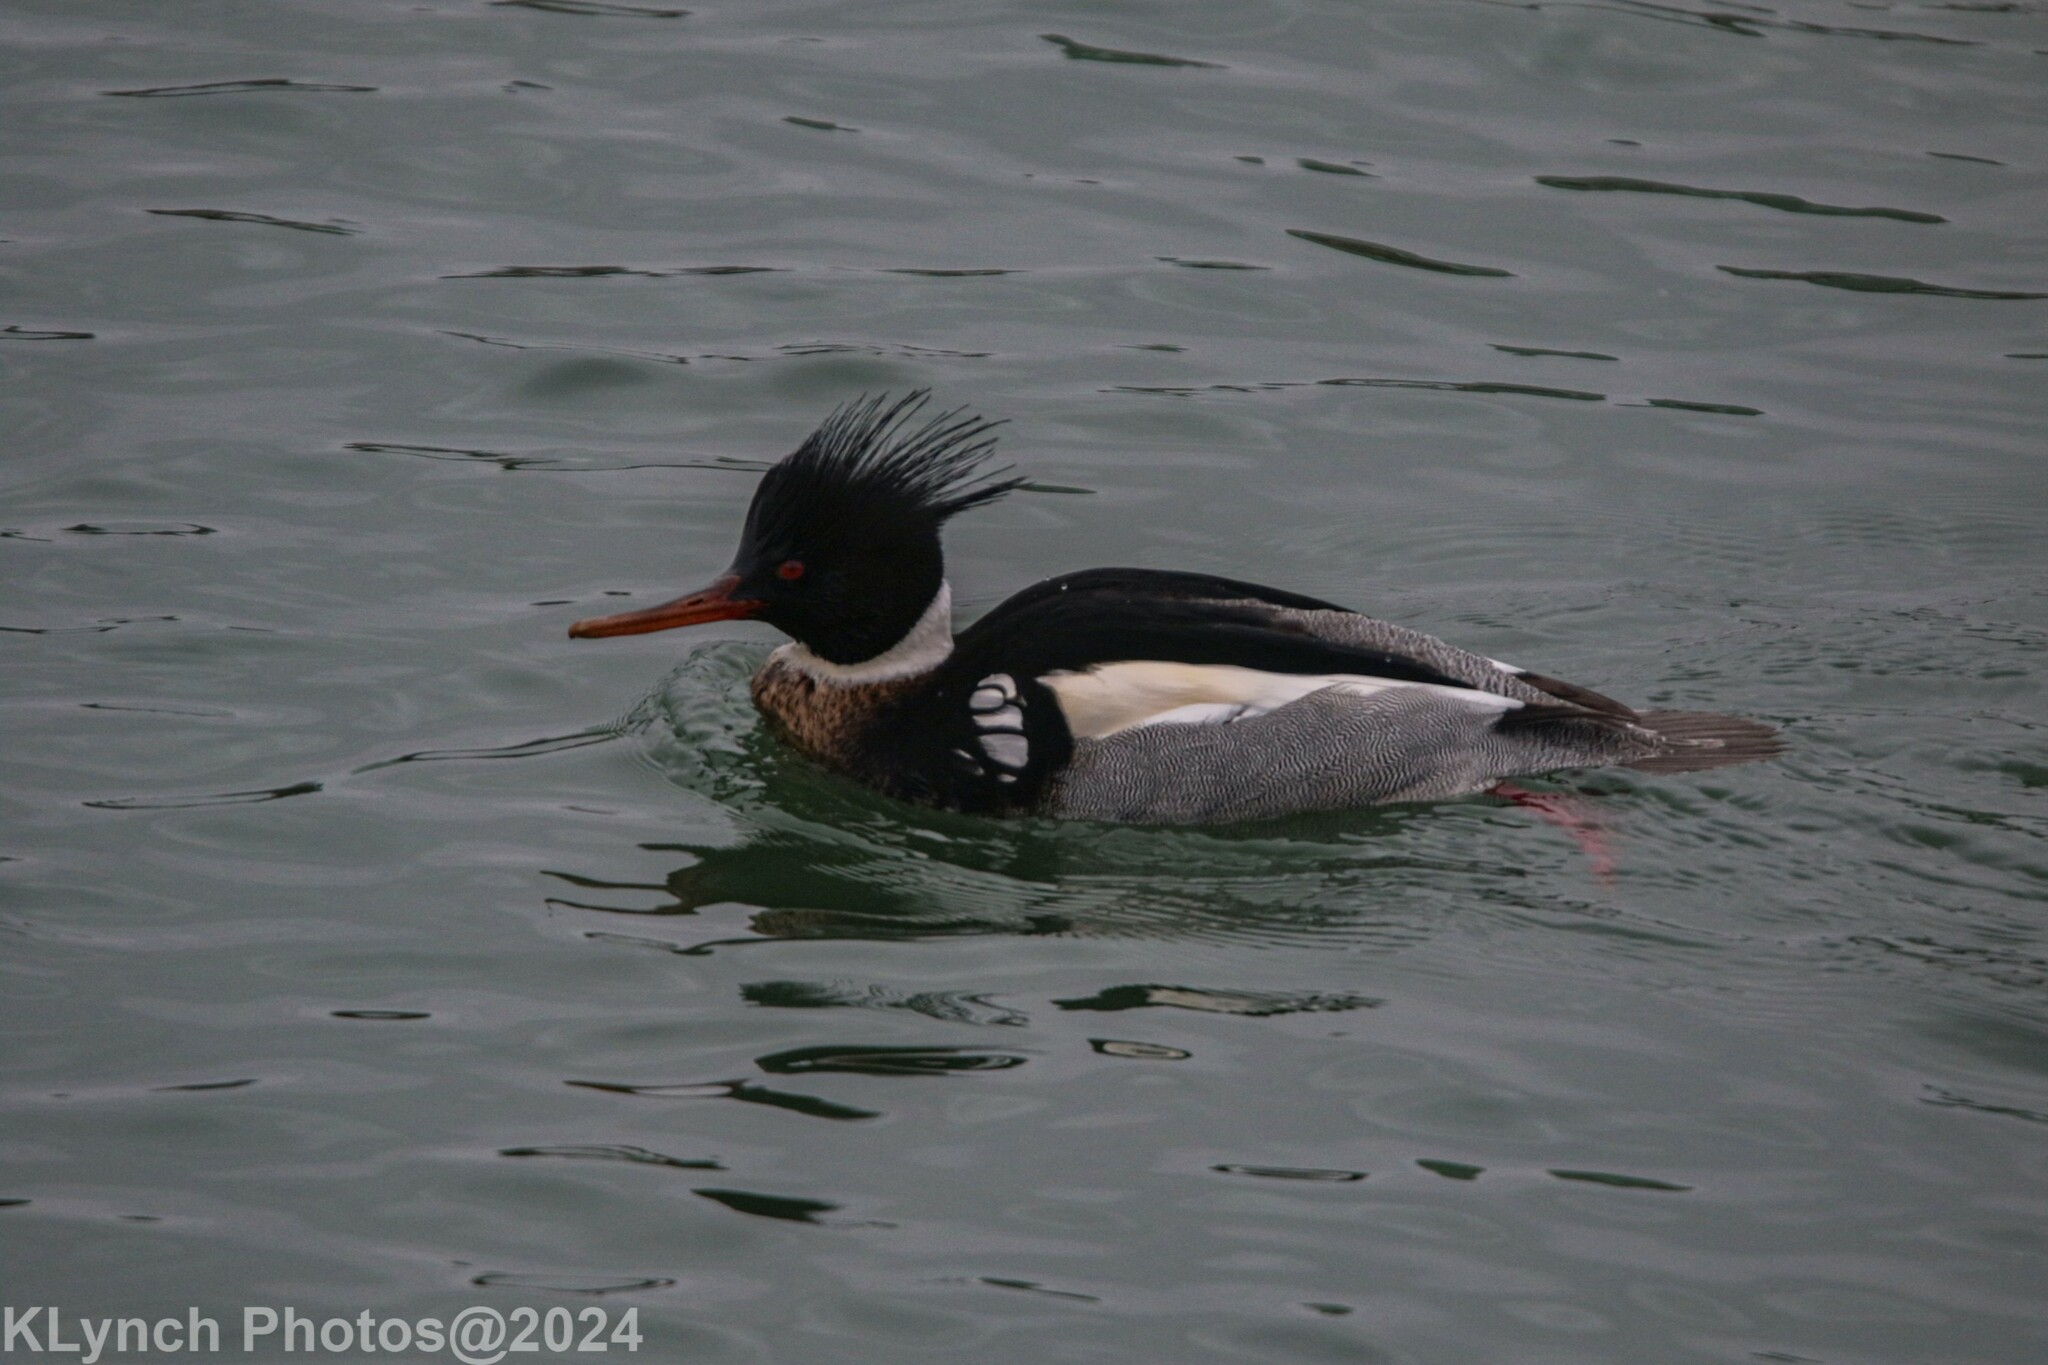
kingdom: Animalia
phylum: Chordata
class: Aves
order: Anseriformes
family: Anatidae
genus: Mergus
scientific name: Mergus serrator
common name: Red-breasted merganser
